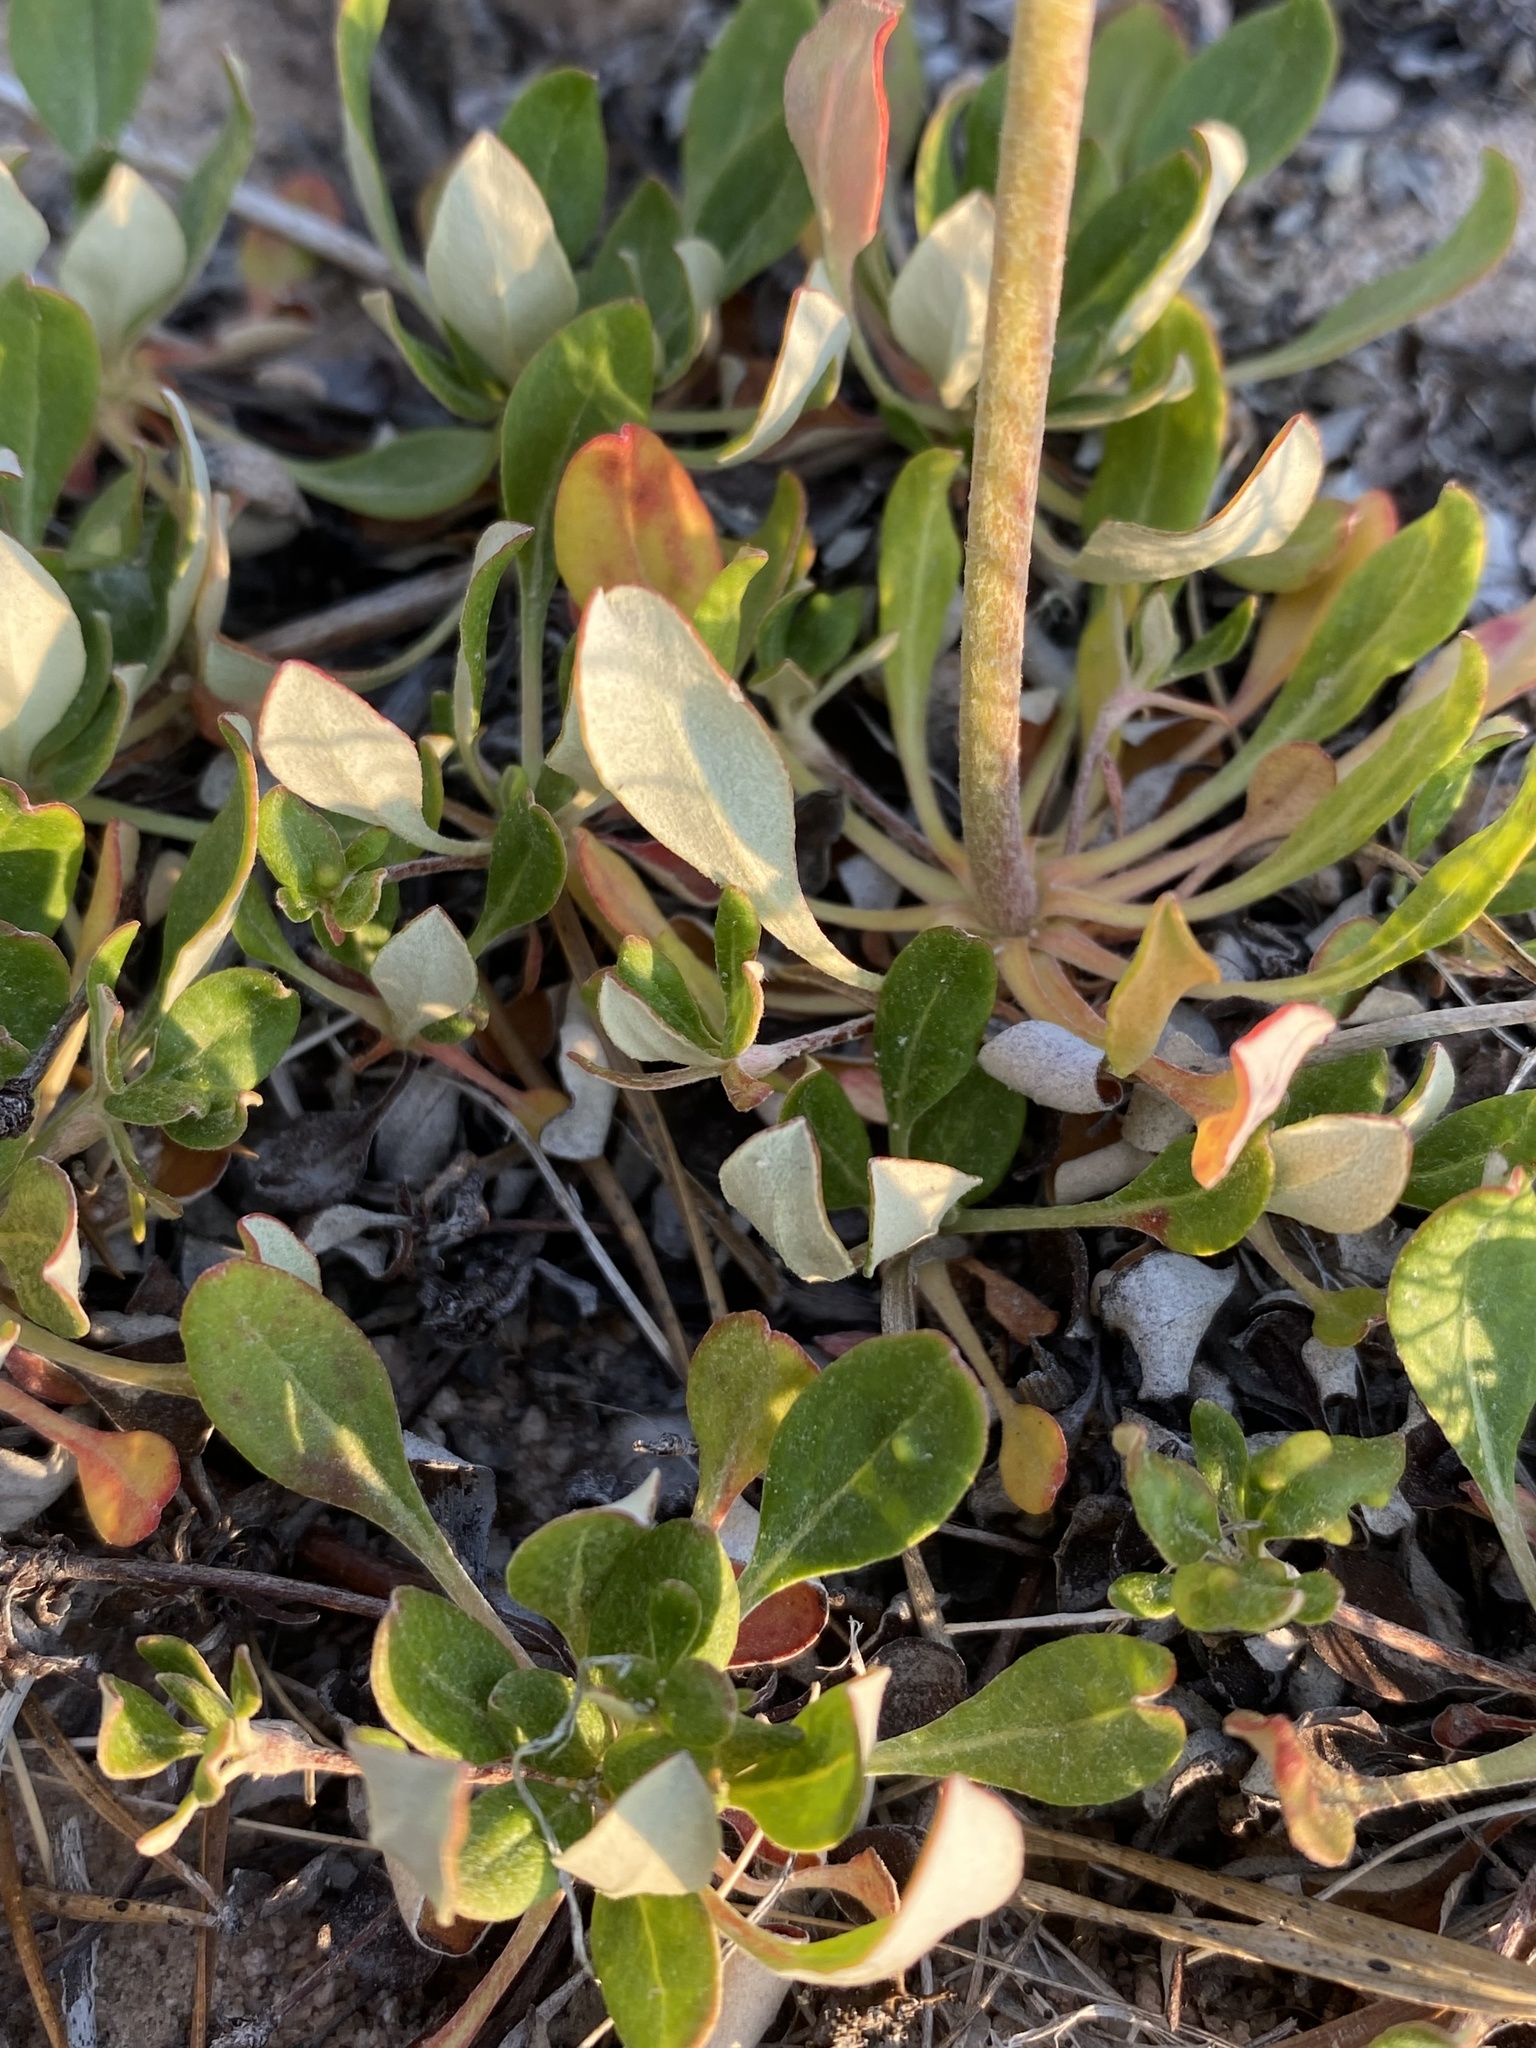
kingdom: Plantae
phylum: Tracheophyta
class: Magnoliopsida
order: Caryophyllales
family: Polygonaceae
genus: Eriogonum
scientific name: Eriogonum umbellatum
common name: Sulfur-buckwheat
